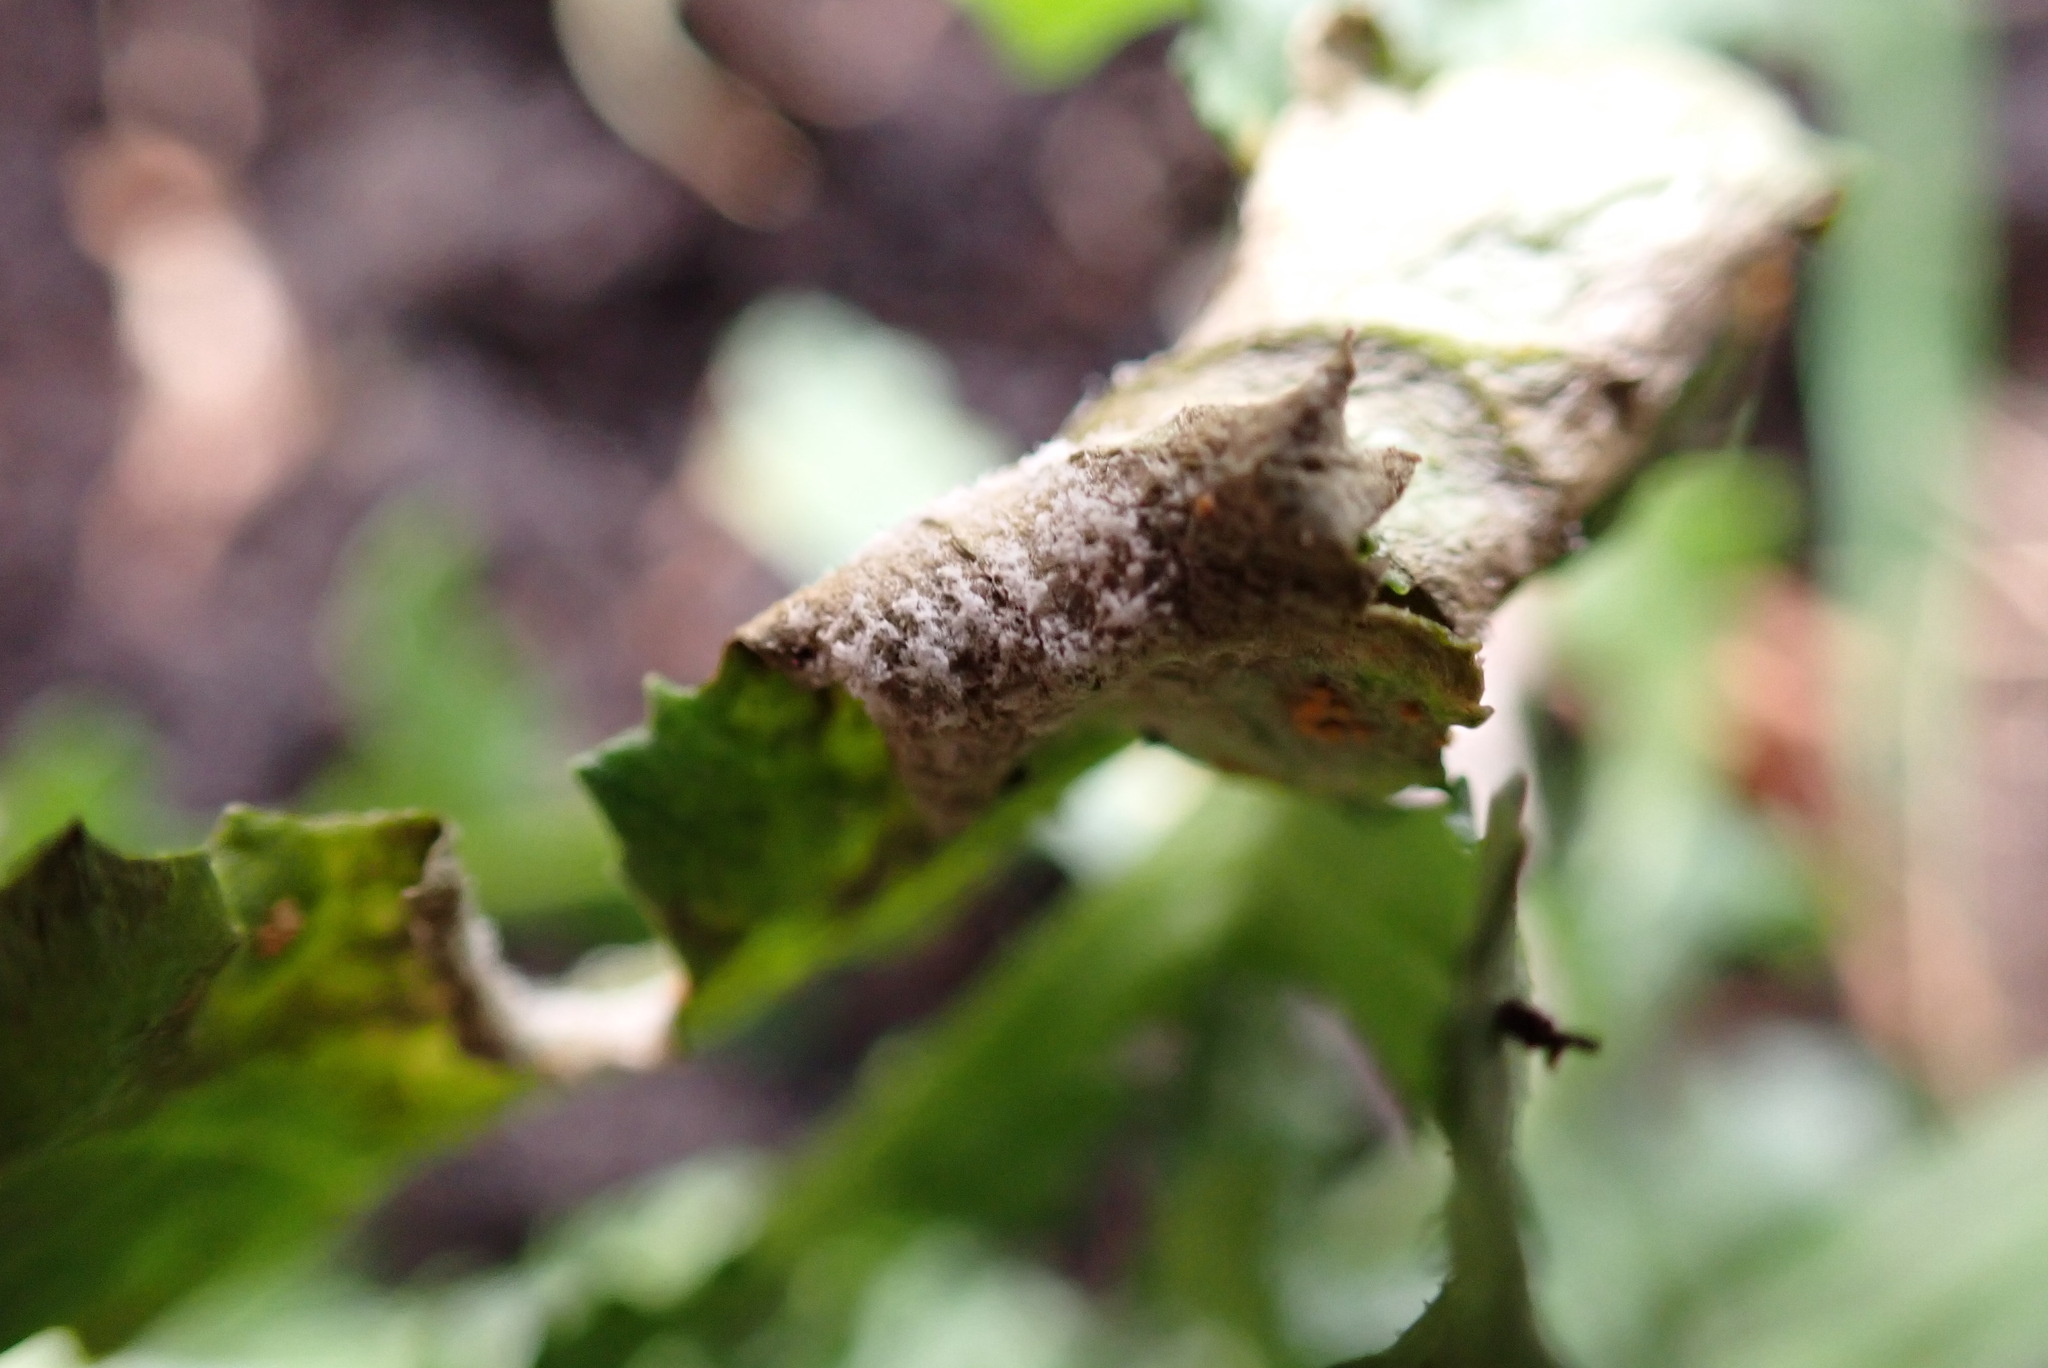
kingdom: Chromista
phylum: Oomycota
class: Peronosporea
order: Peronosporales
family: Peronosporaceae
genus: Bremia
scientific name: Bremia tulasnei
